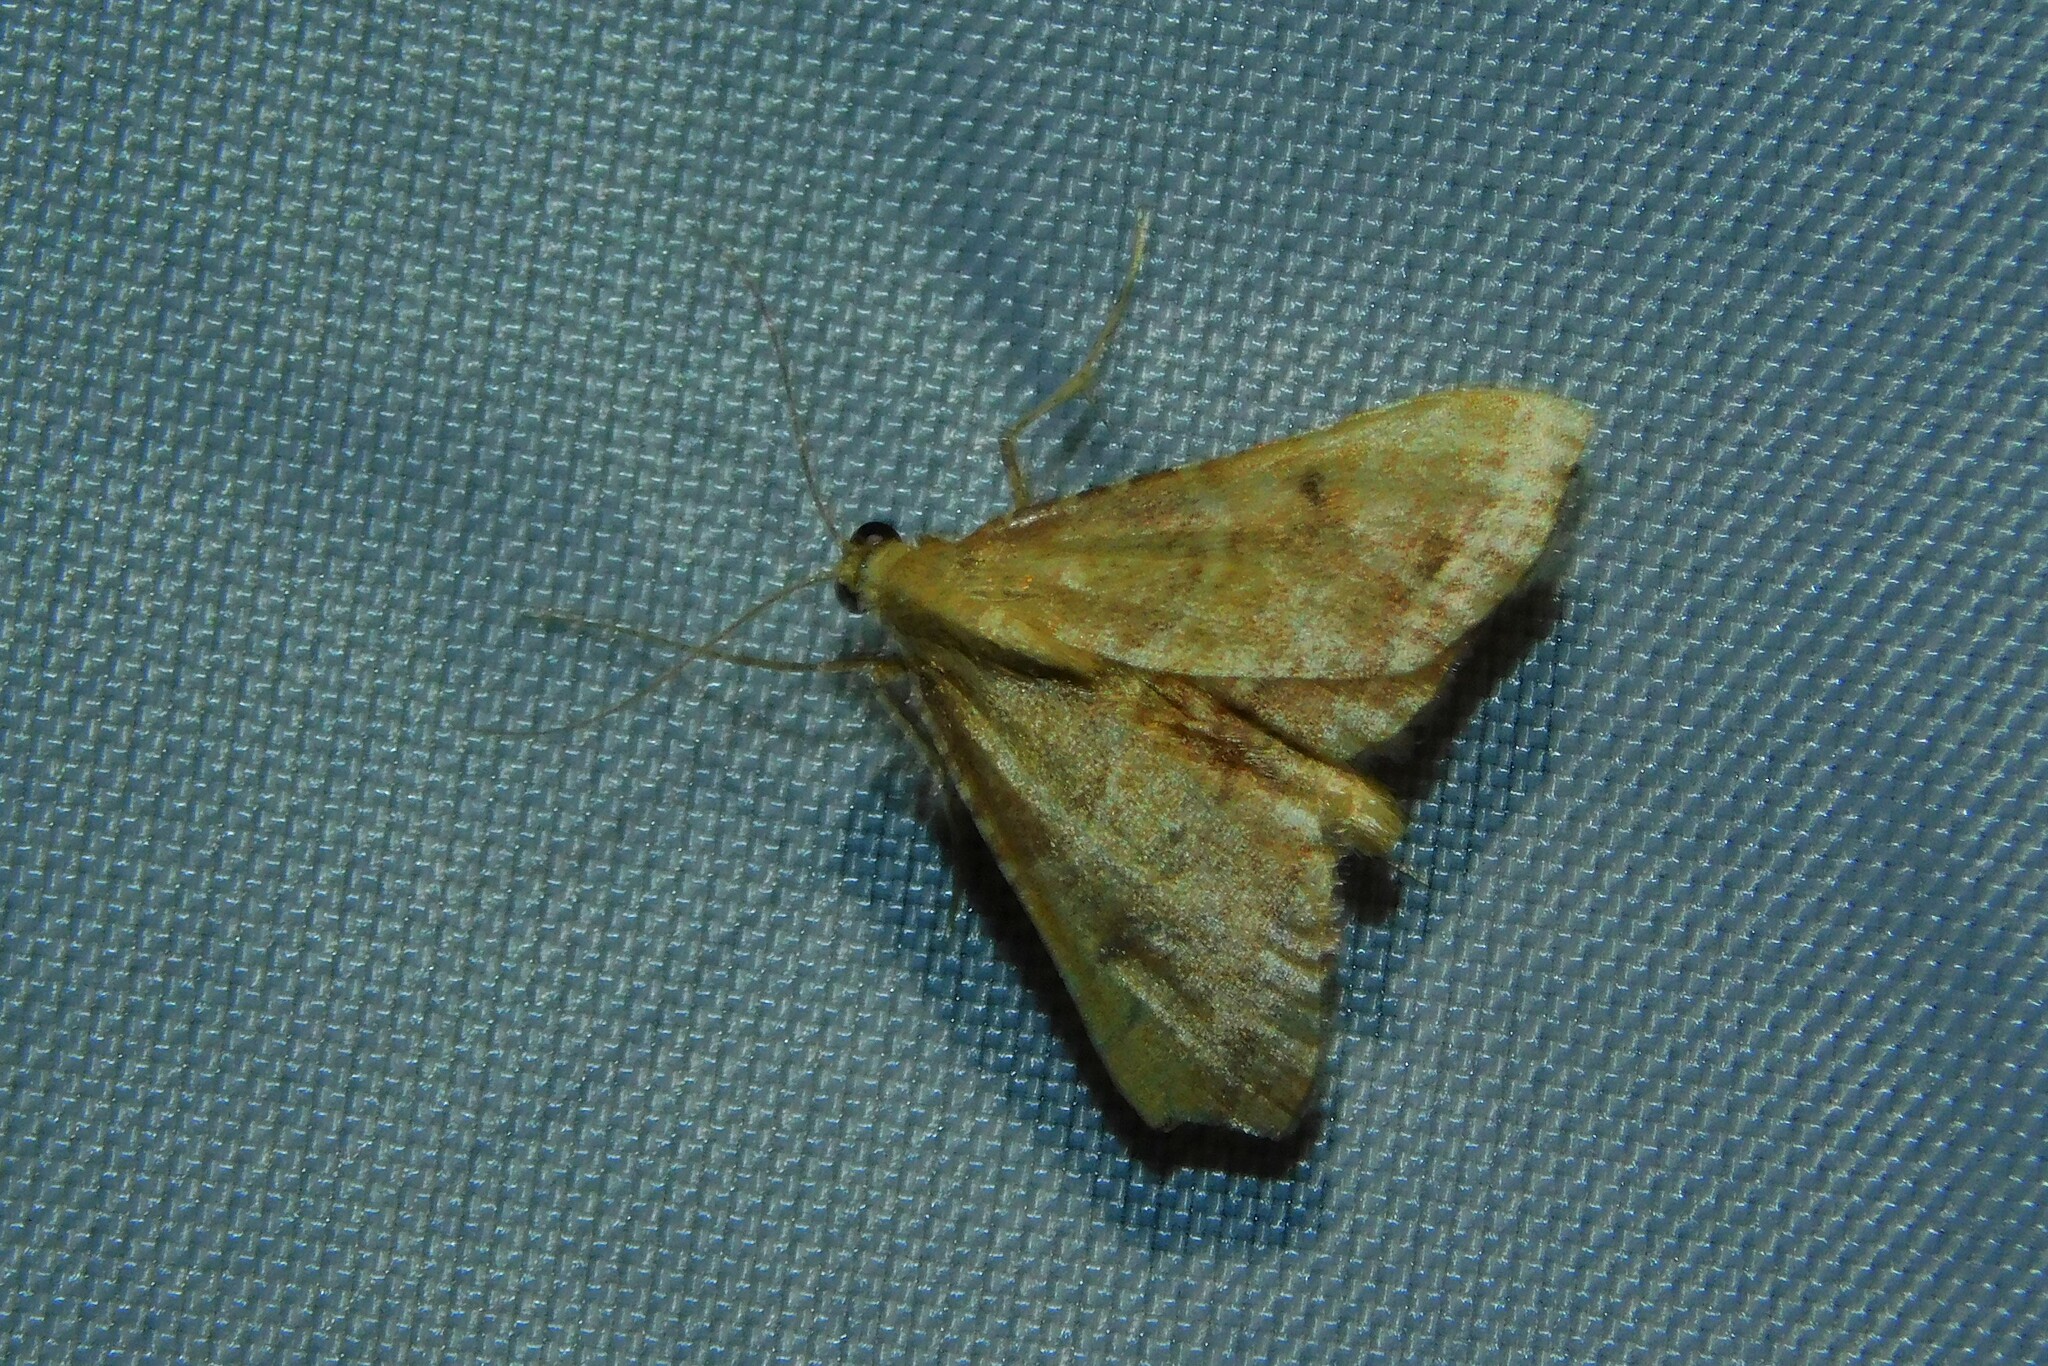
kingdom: Animalia
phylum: Arthropoda
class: Insecta
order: Lepidoptera
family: Pyralidae
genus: Endotricha
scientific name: Endotricha flammealis
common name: Rosy tabby
